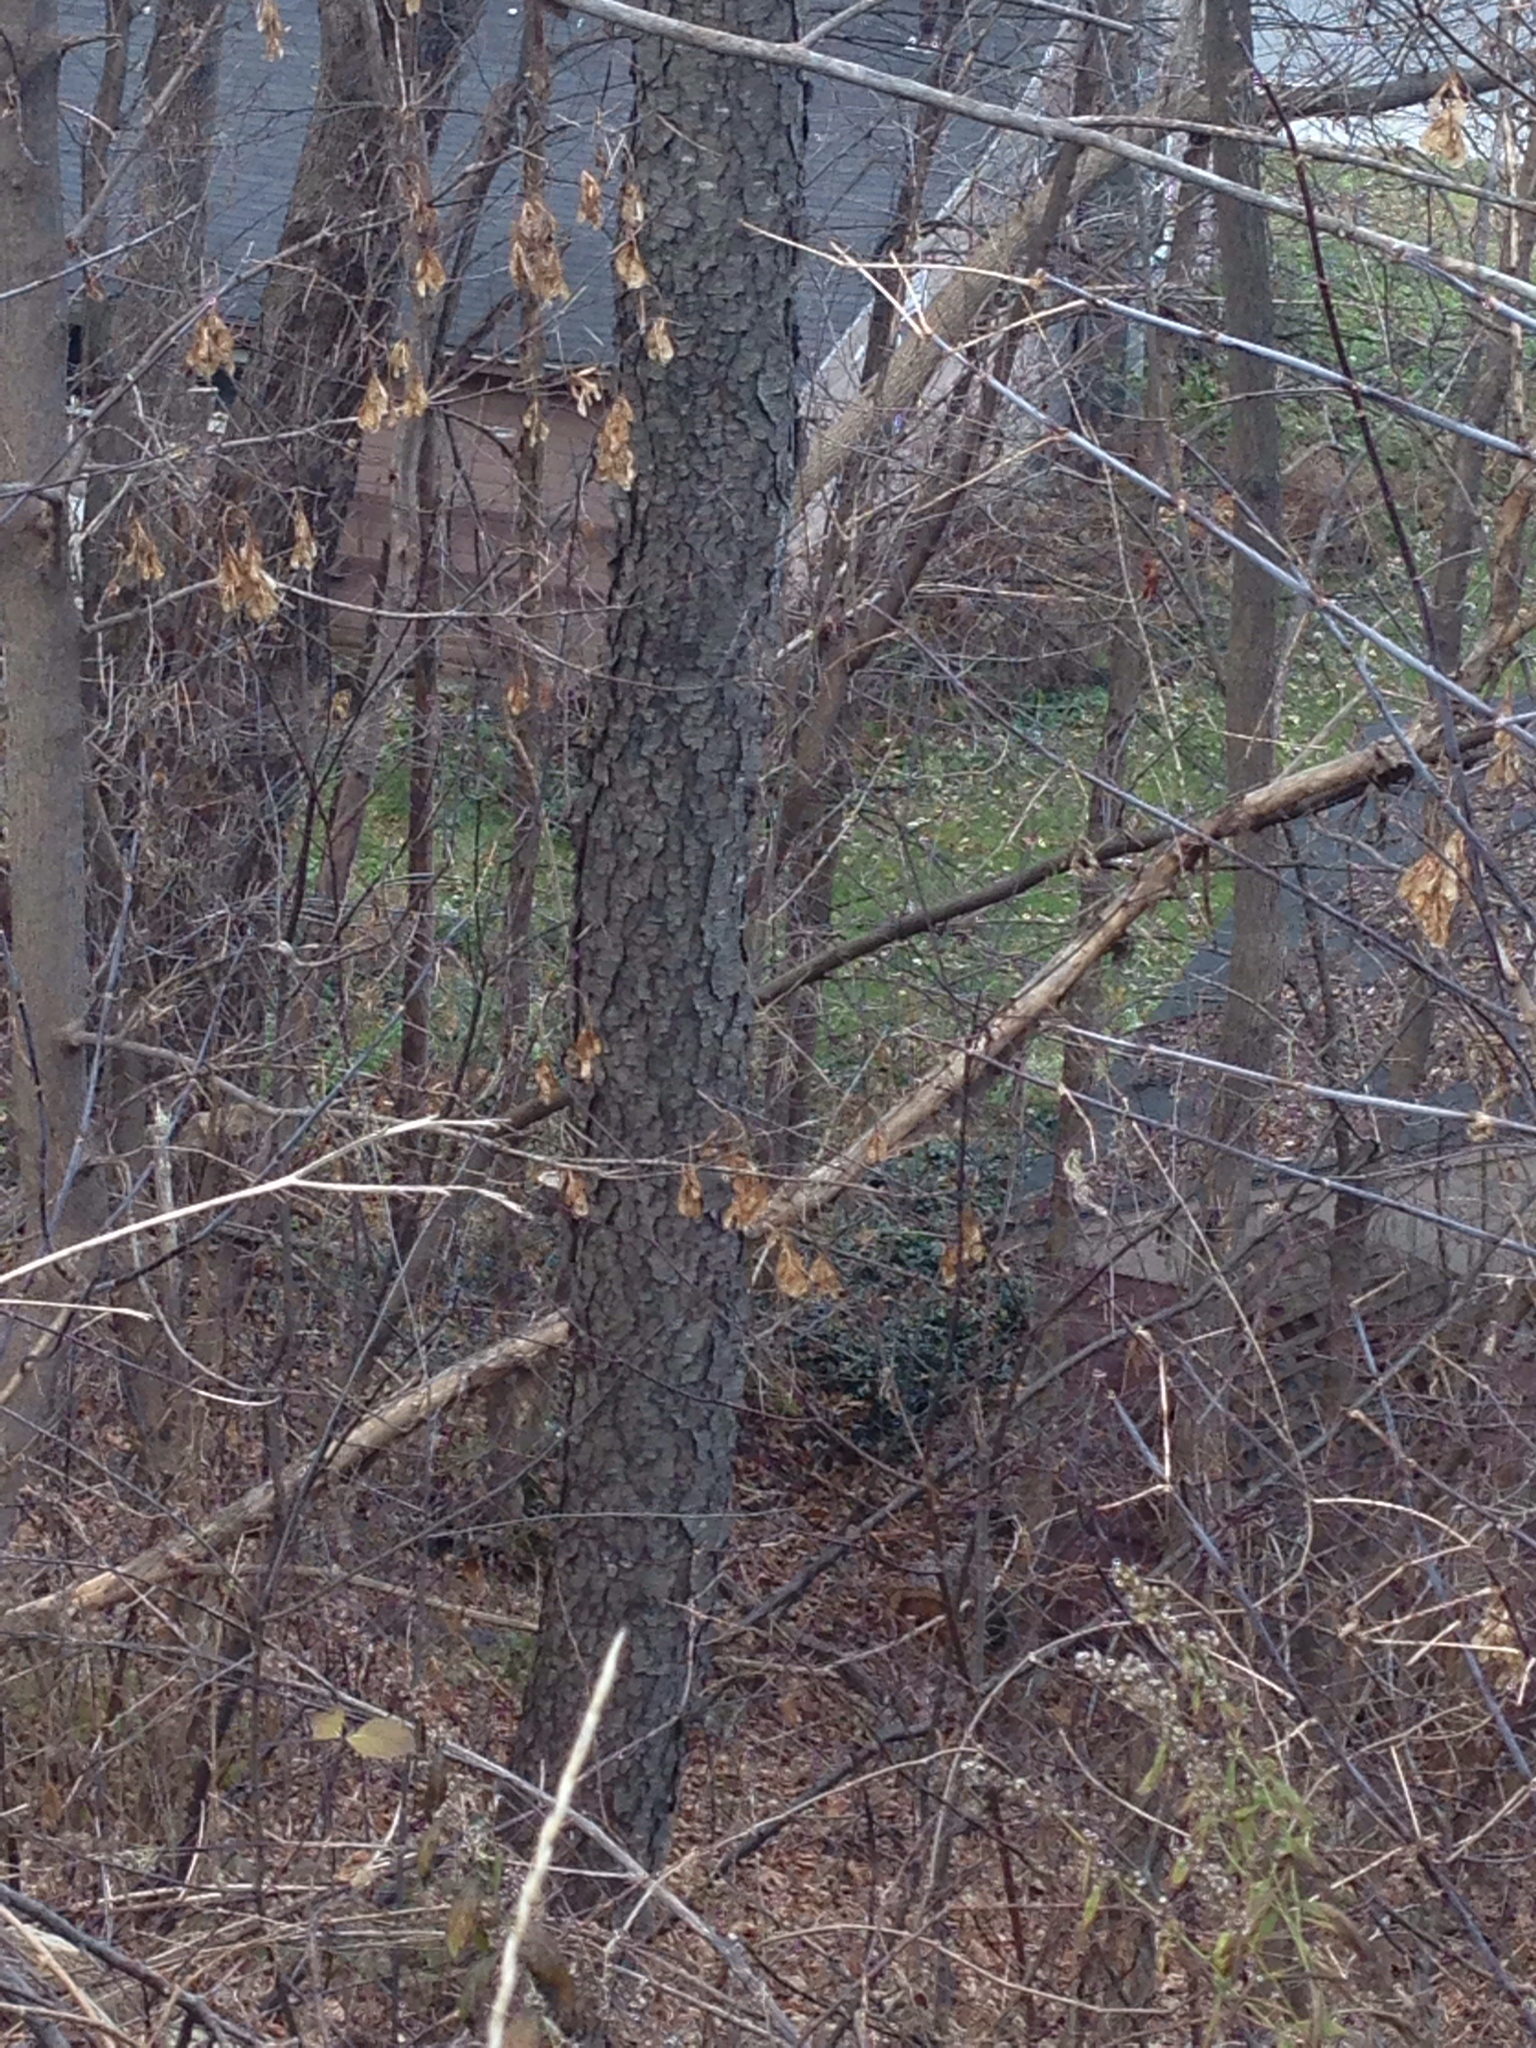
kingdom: Plantae
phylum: Tracheophyta
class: Magnoliopsida
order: Rosales
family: Rosaceae
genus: Prunus
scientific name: Prunus serotina
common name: Black cherry
